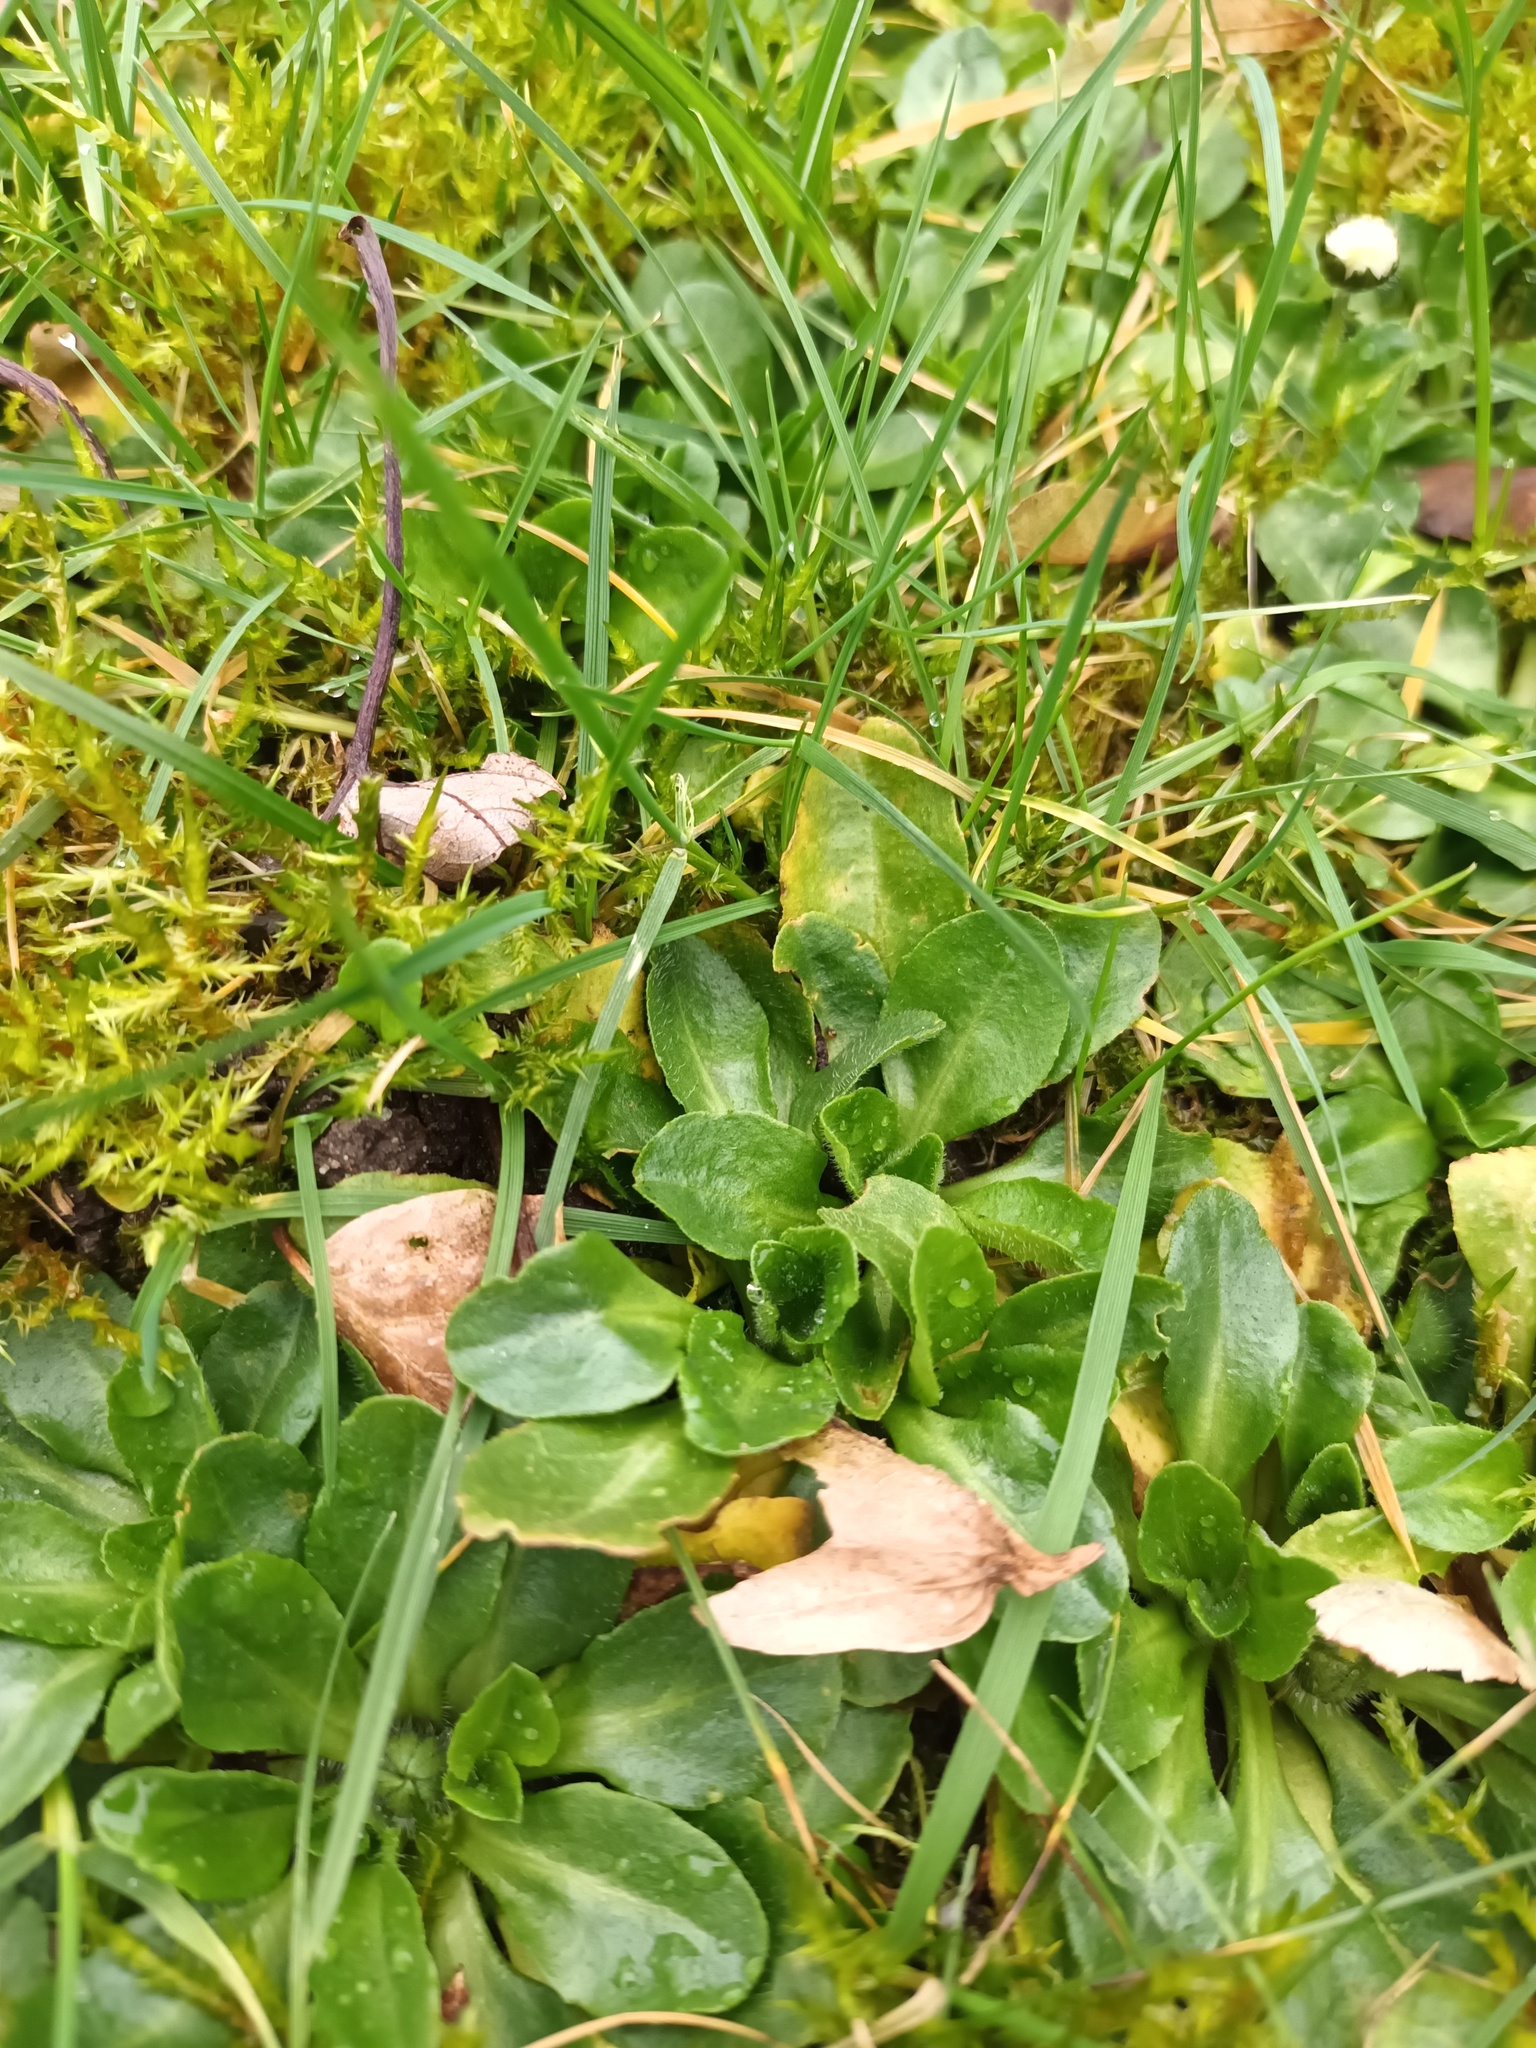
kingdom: Plantae
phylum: Tracheophyta
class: Magnoliopsida
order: Asterales
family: Asteraceae
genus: Bellis
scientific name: Bellis perennis
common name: Lawndaisy
